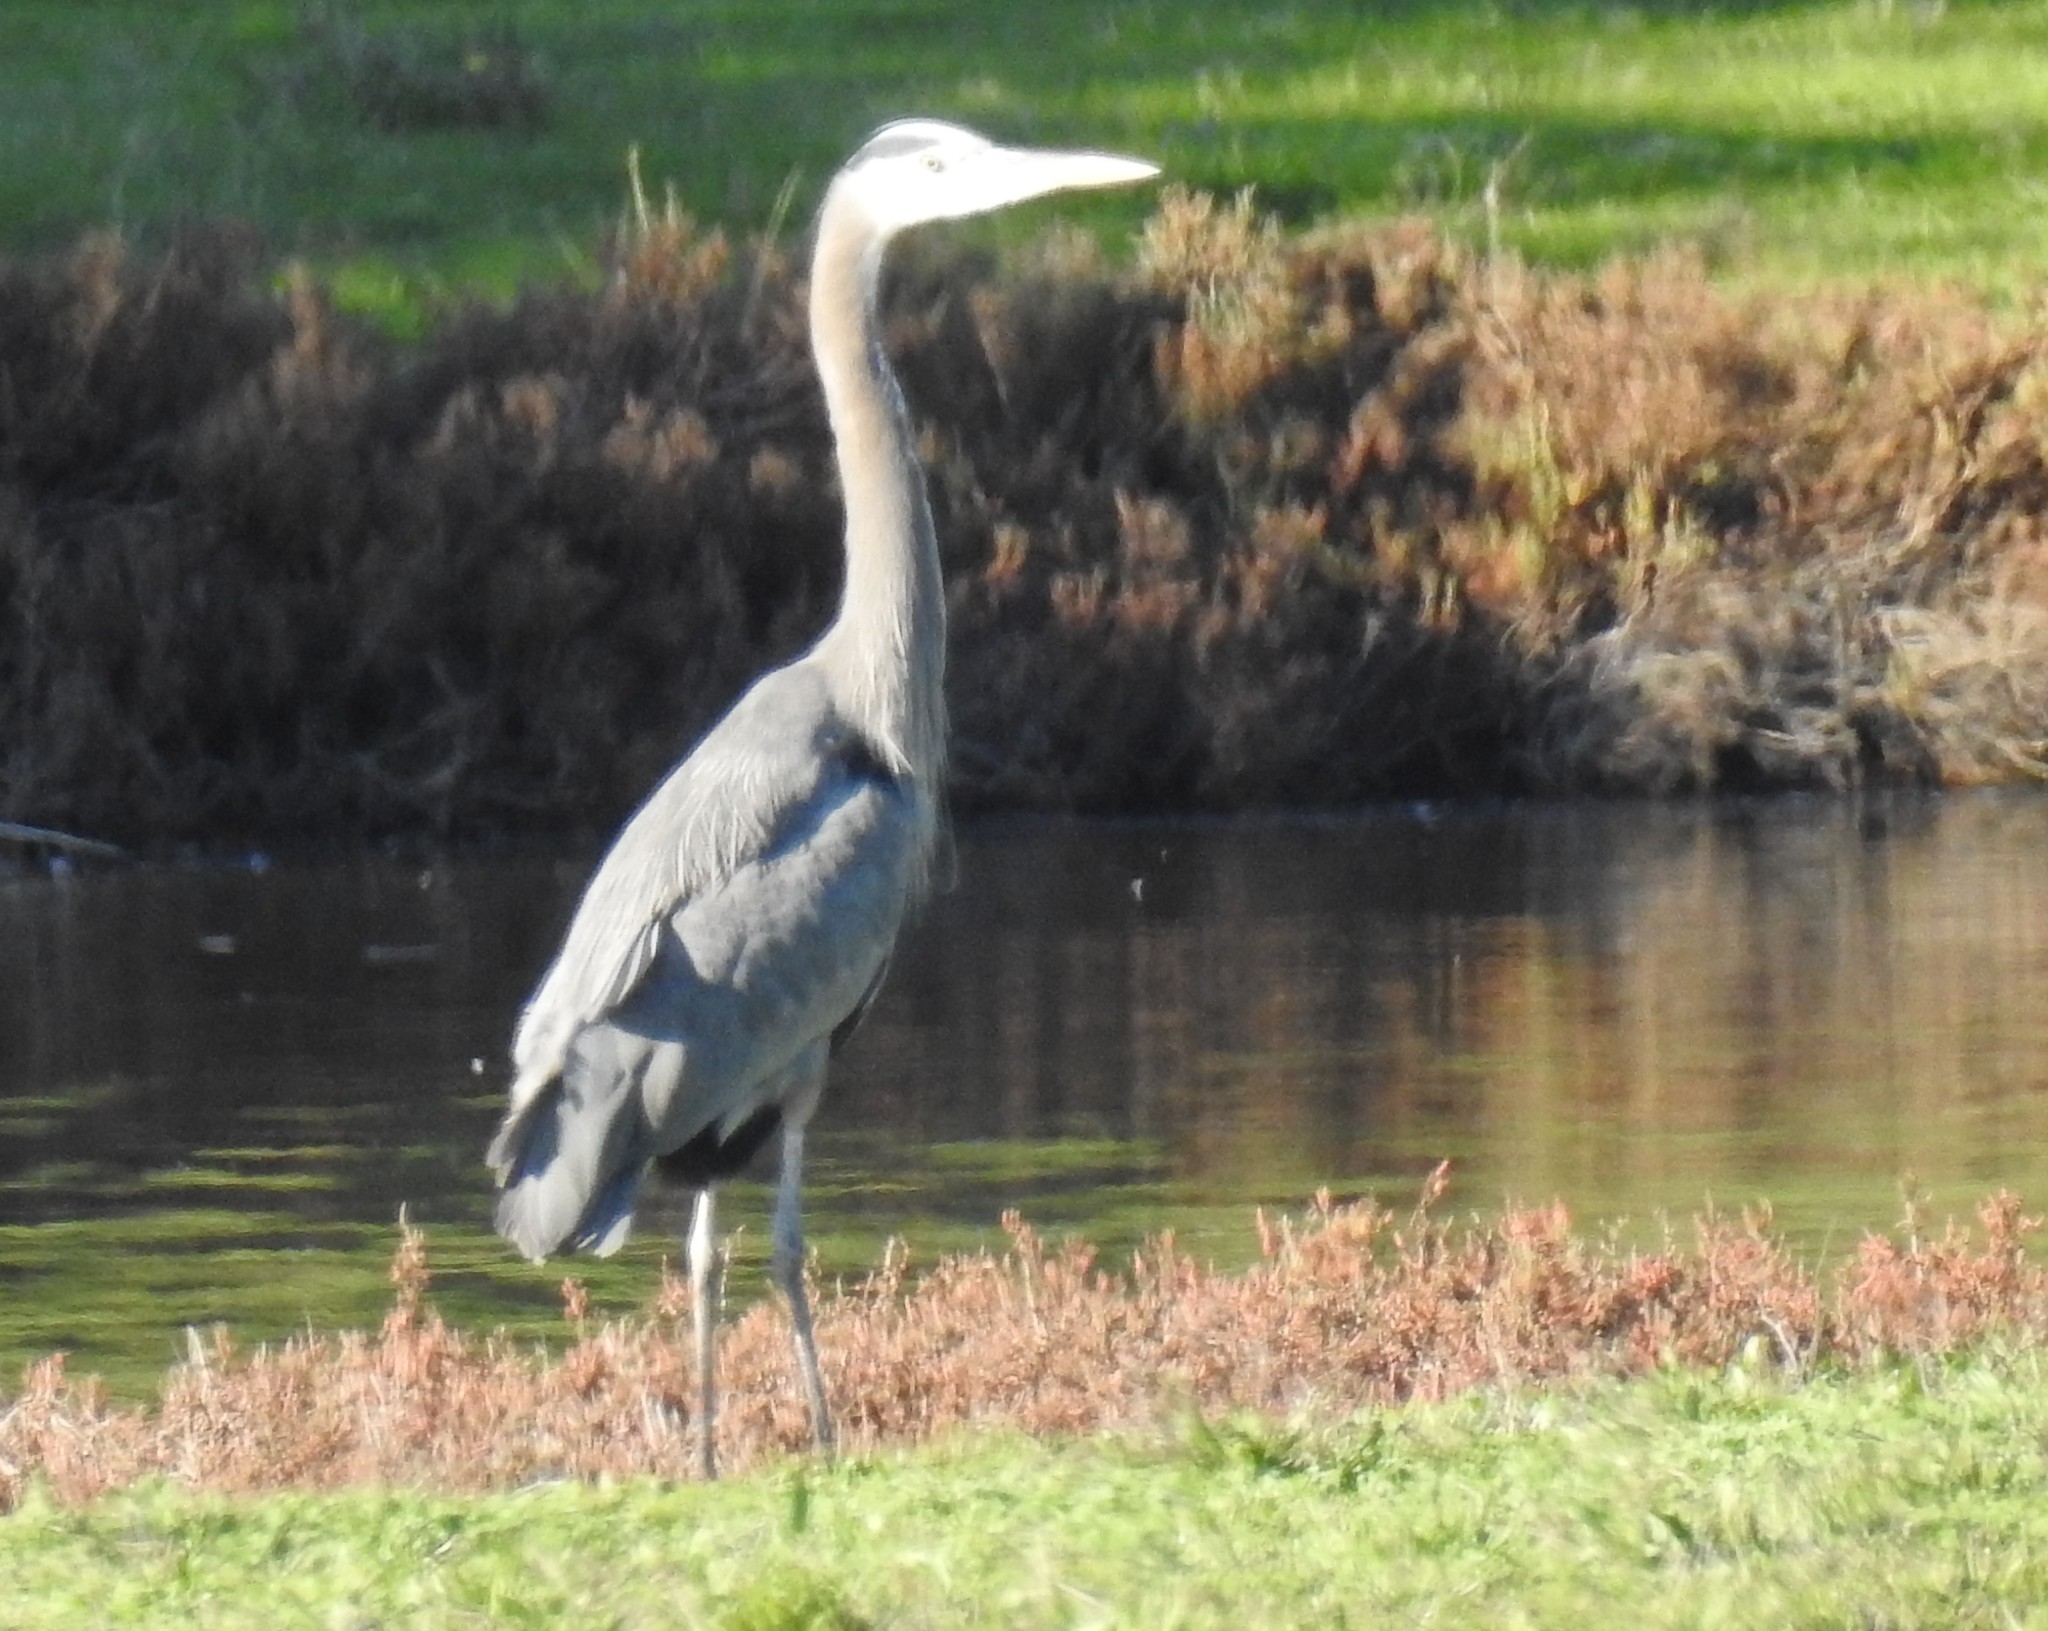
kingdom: Animalia
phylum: Chordata
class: Aves
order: Pelecaniformes
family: Ardeidae
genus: Ardea
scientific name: Ardea herodias
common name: Great blue heron
